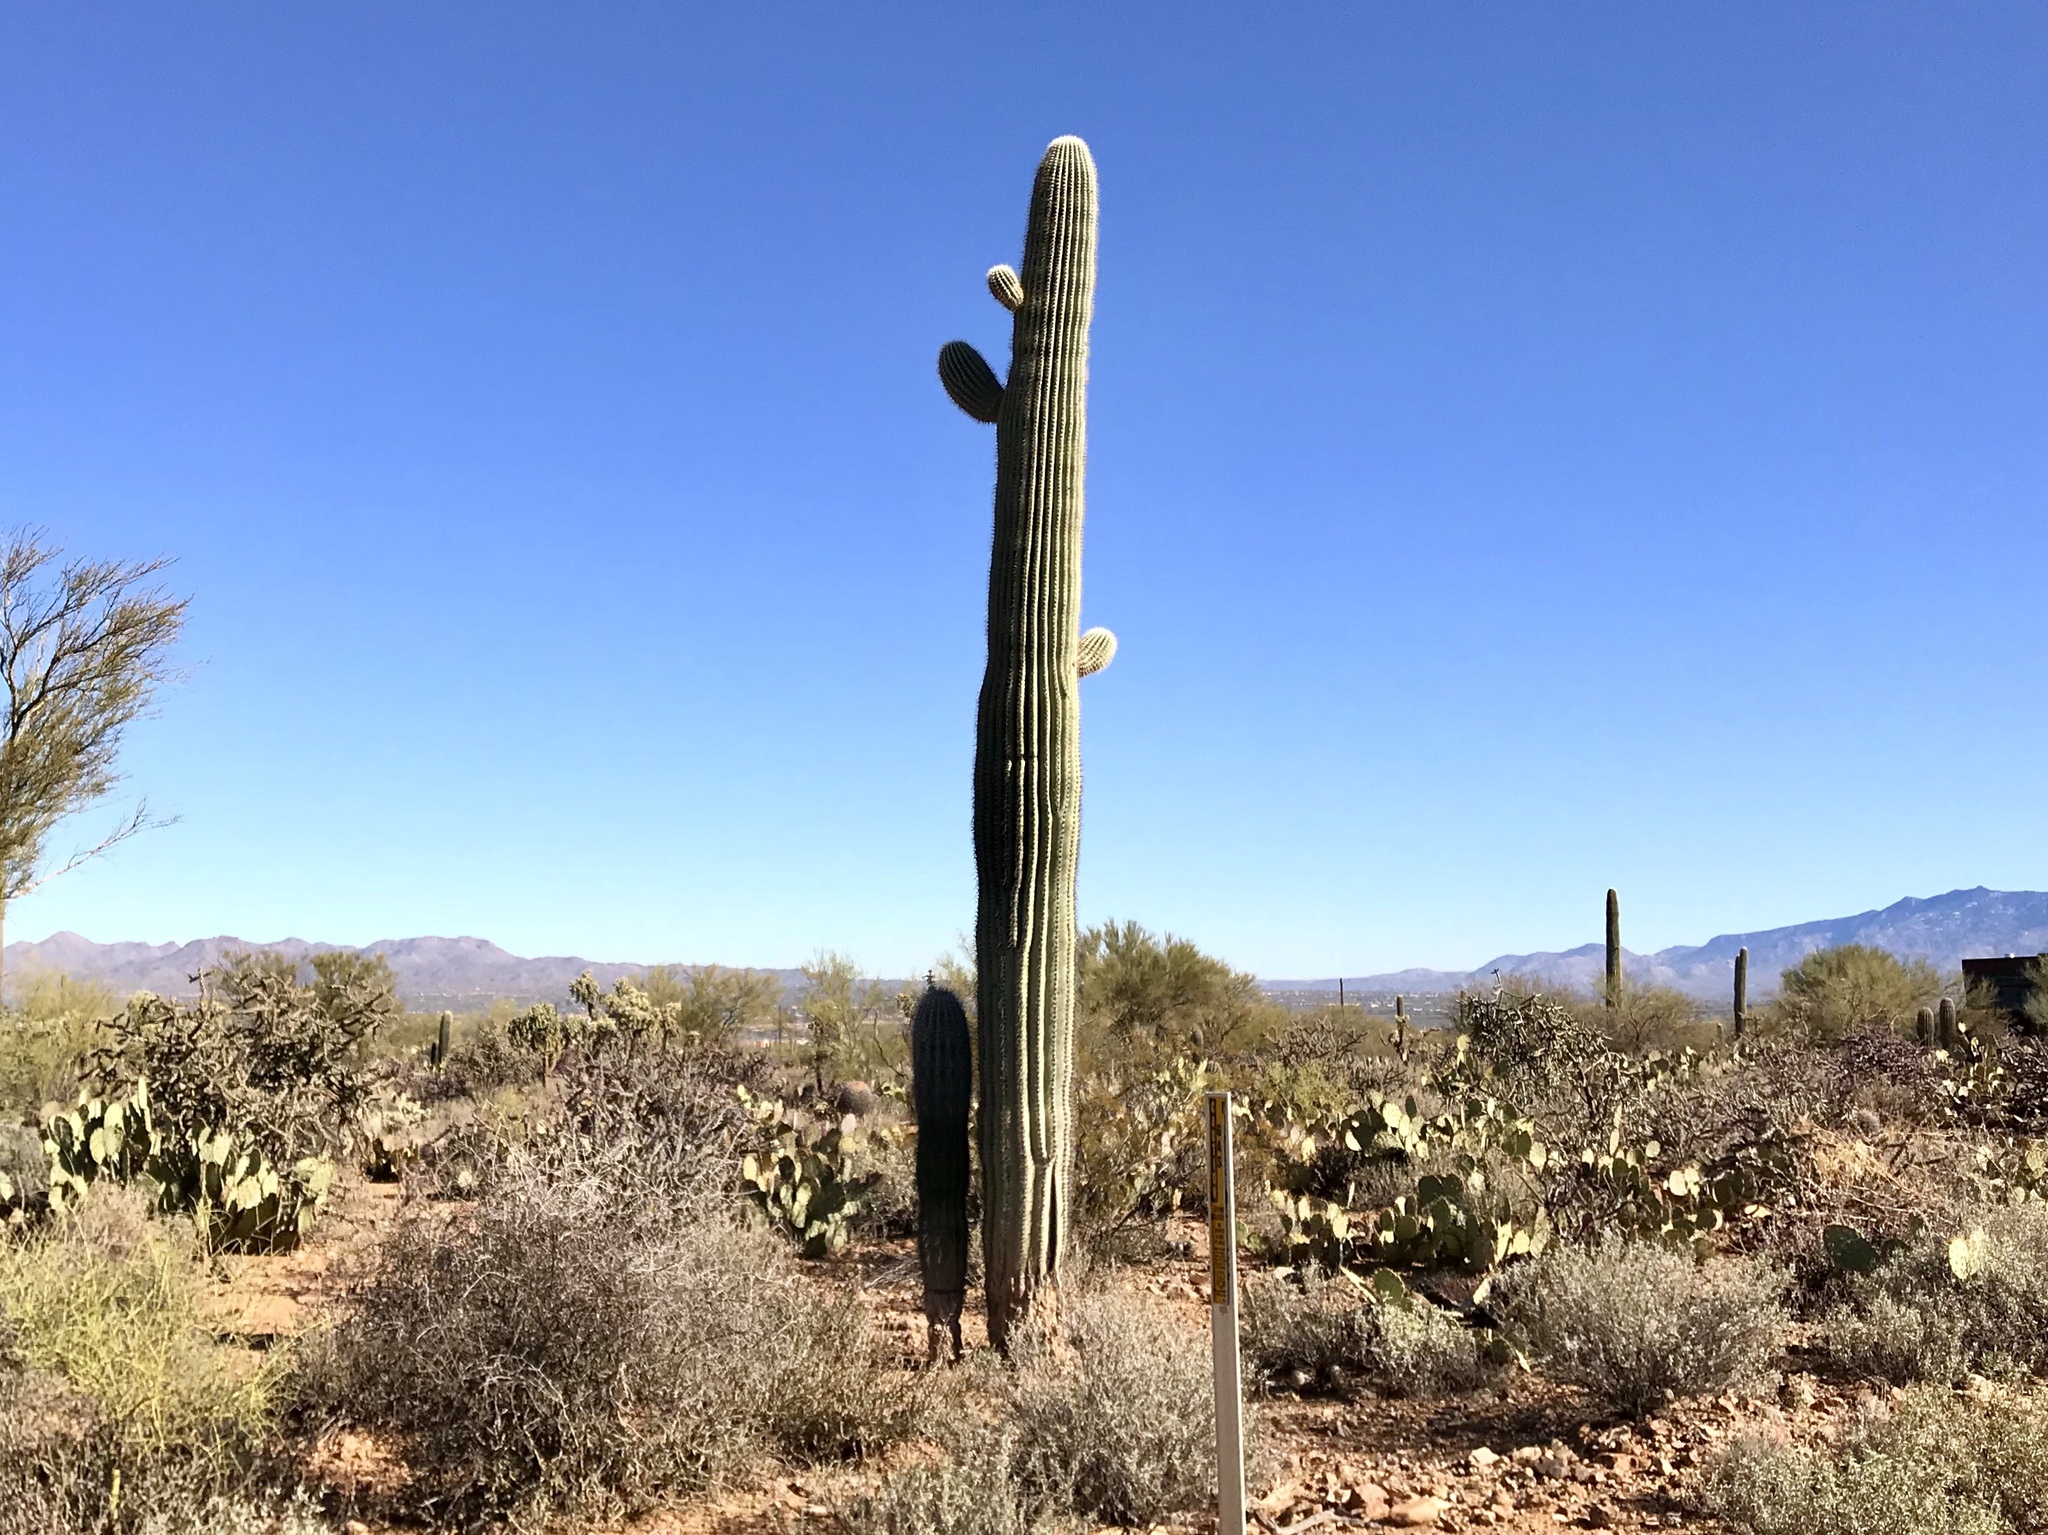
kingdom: Plantae
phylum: Tracheophyta
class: Magnoliopsida
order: Caryophyllales
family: Cactaceae
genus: Carnegiea
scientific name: Carnegiea gigantea
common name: Saguaro
